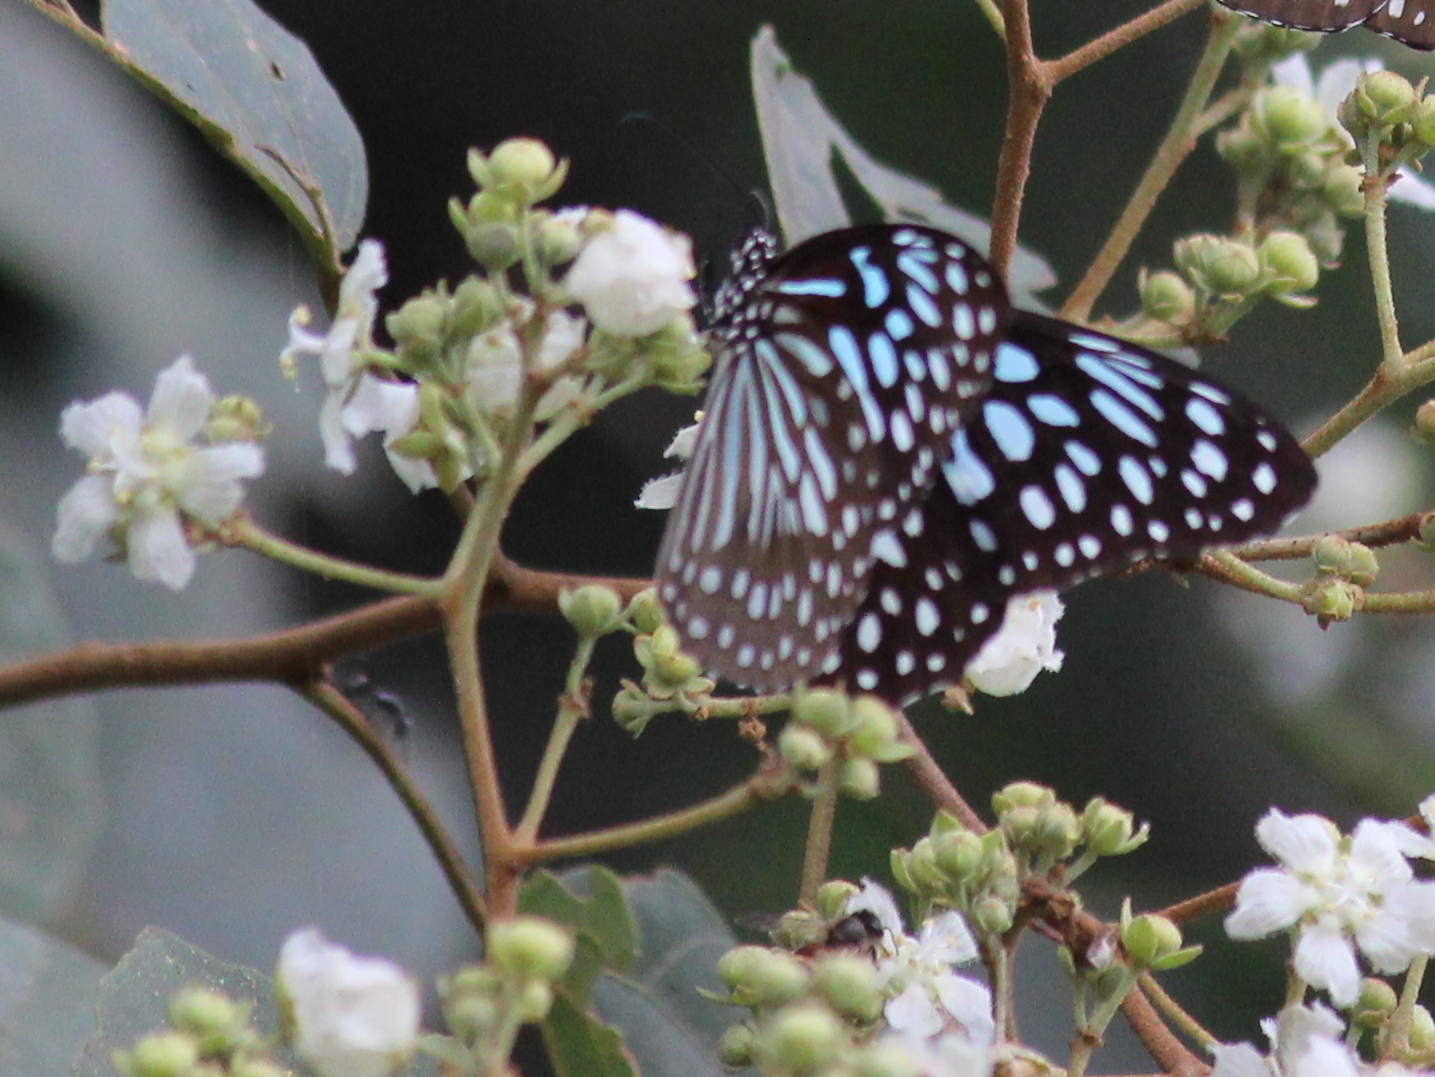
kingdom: Animalia
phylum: Arthropoda
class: Insecta
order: Lepidoptera
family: Nymphalidae
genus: Tirumala
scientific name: Tirumala septentrionis
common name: Dark blue tiger butterfly
